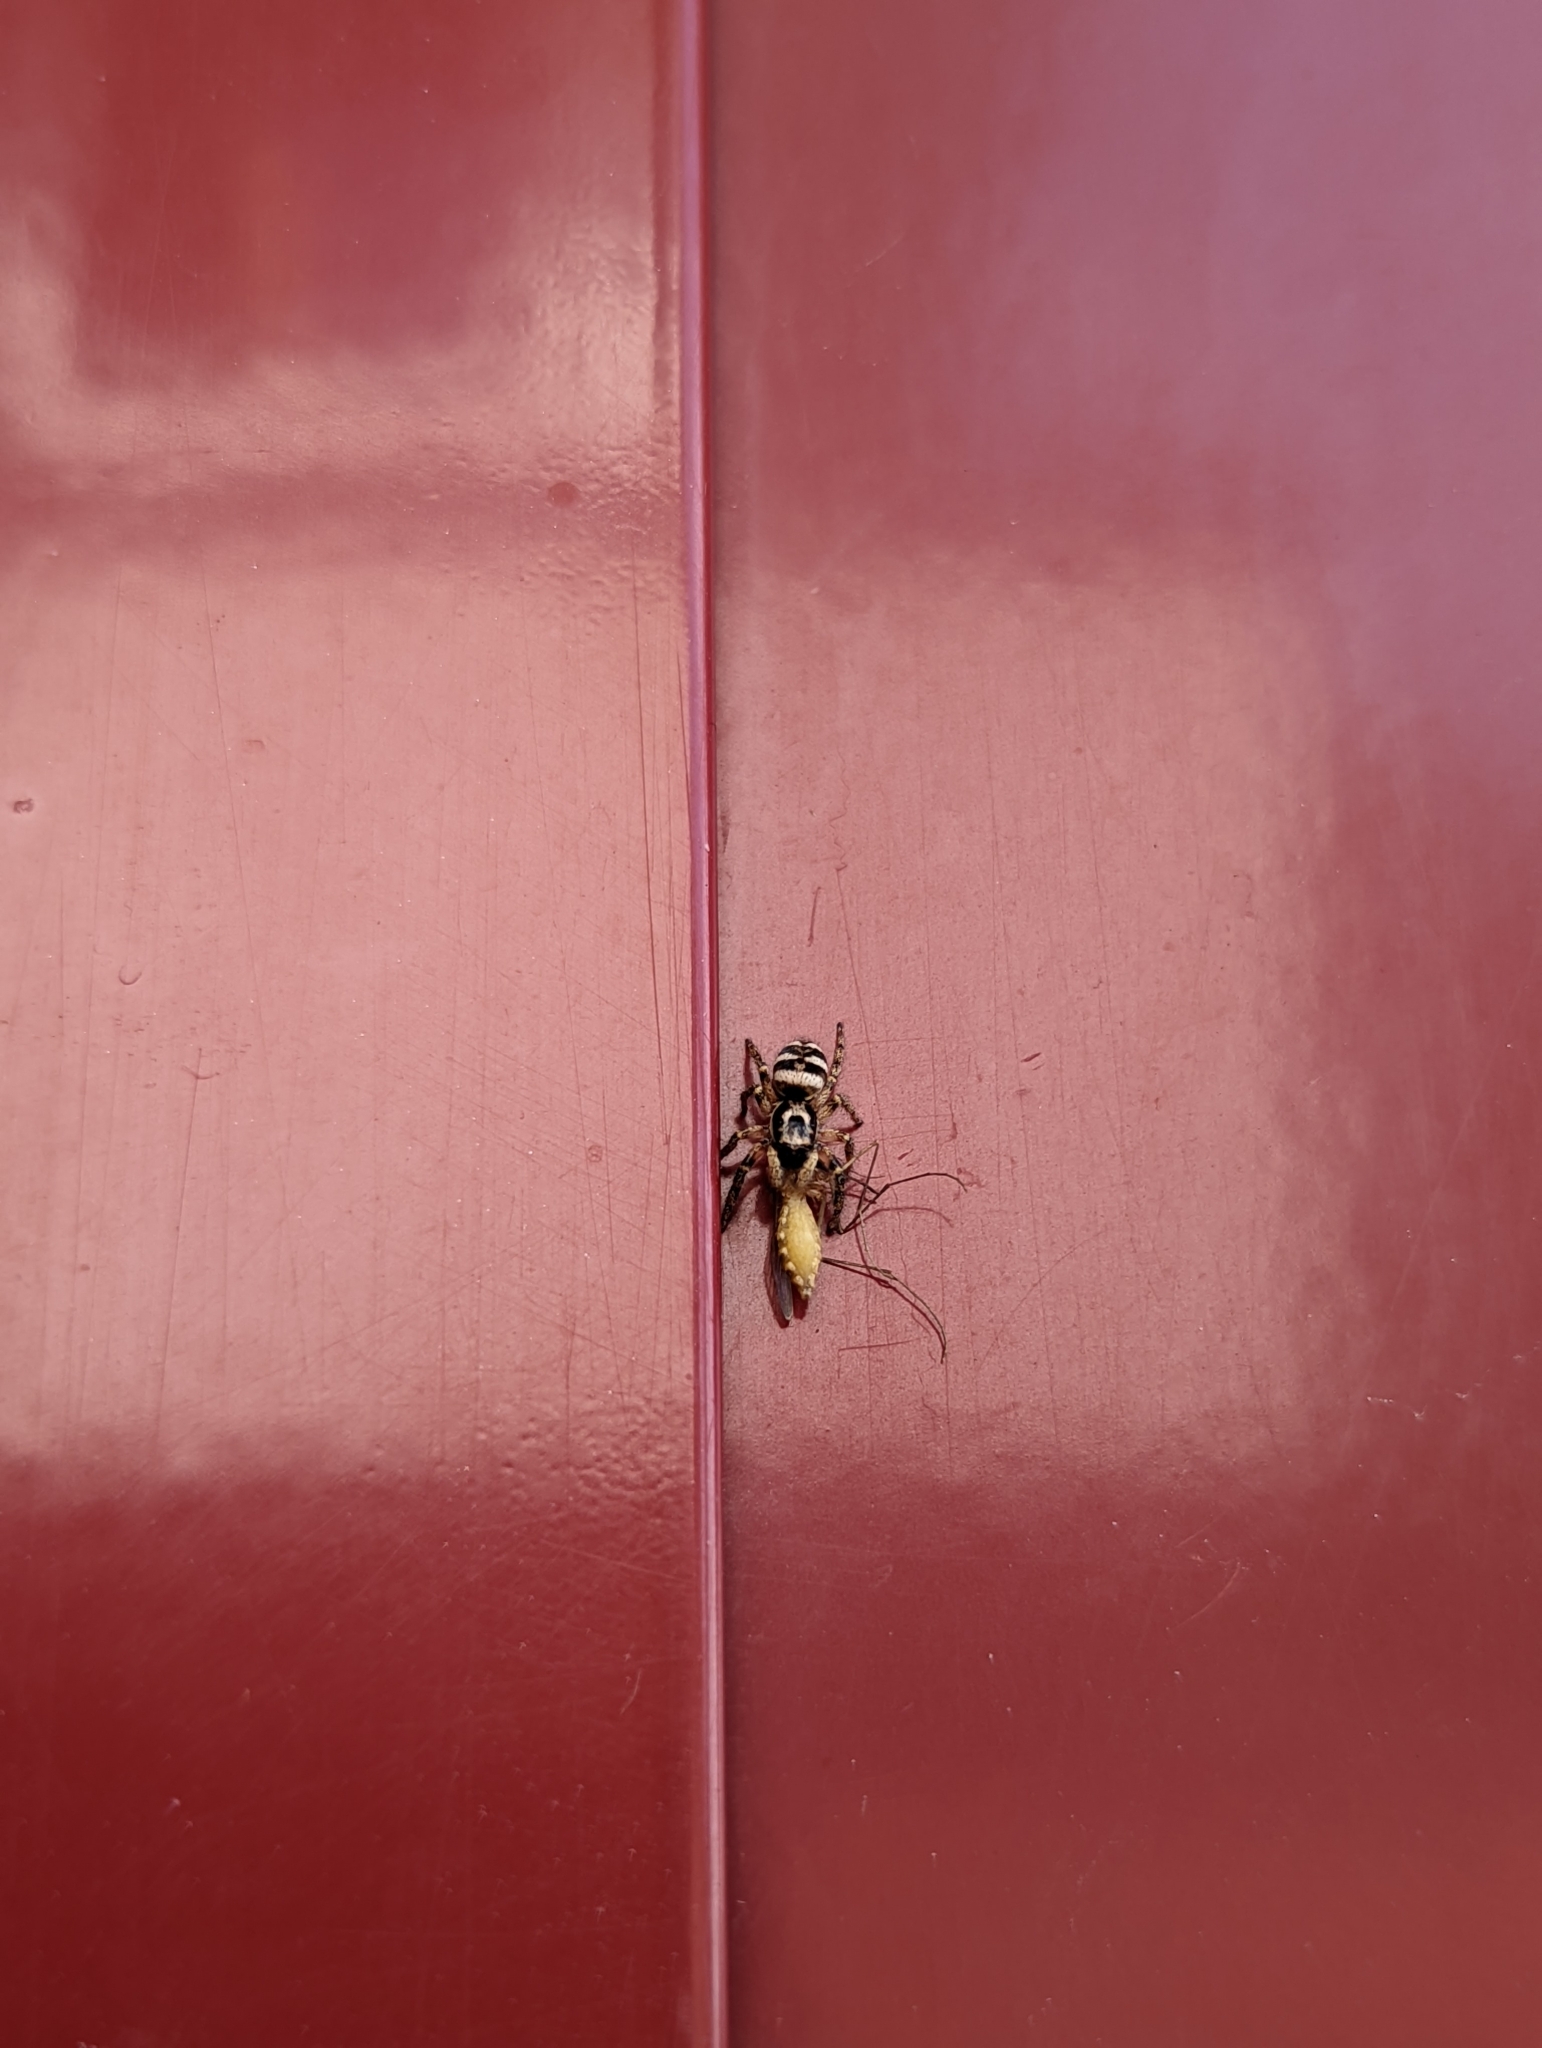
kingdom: Animalia
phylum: Arthropoda
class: Arachnida
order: Araneae
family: Salticidae
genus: Salticus
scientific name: Salticus scenicus
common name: Zebra jumper
